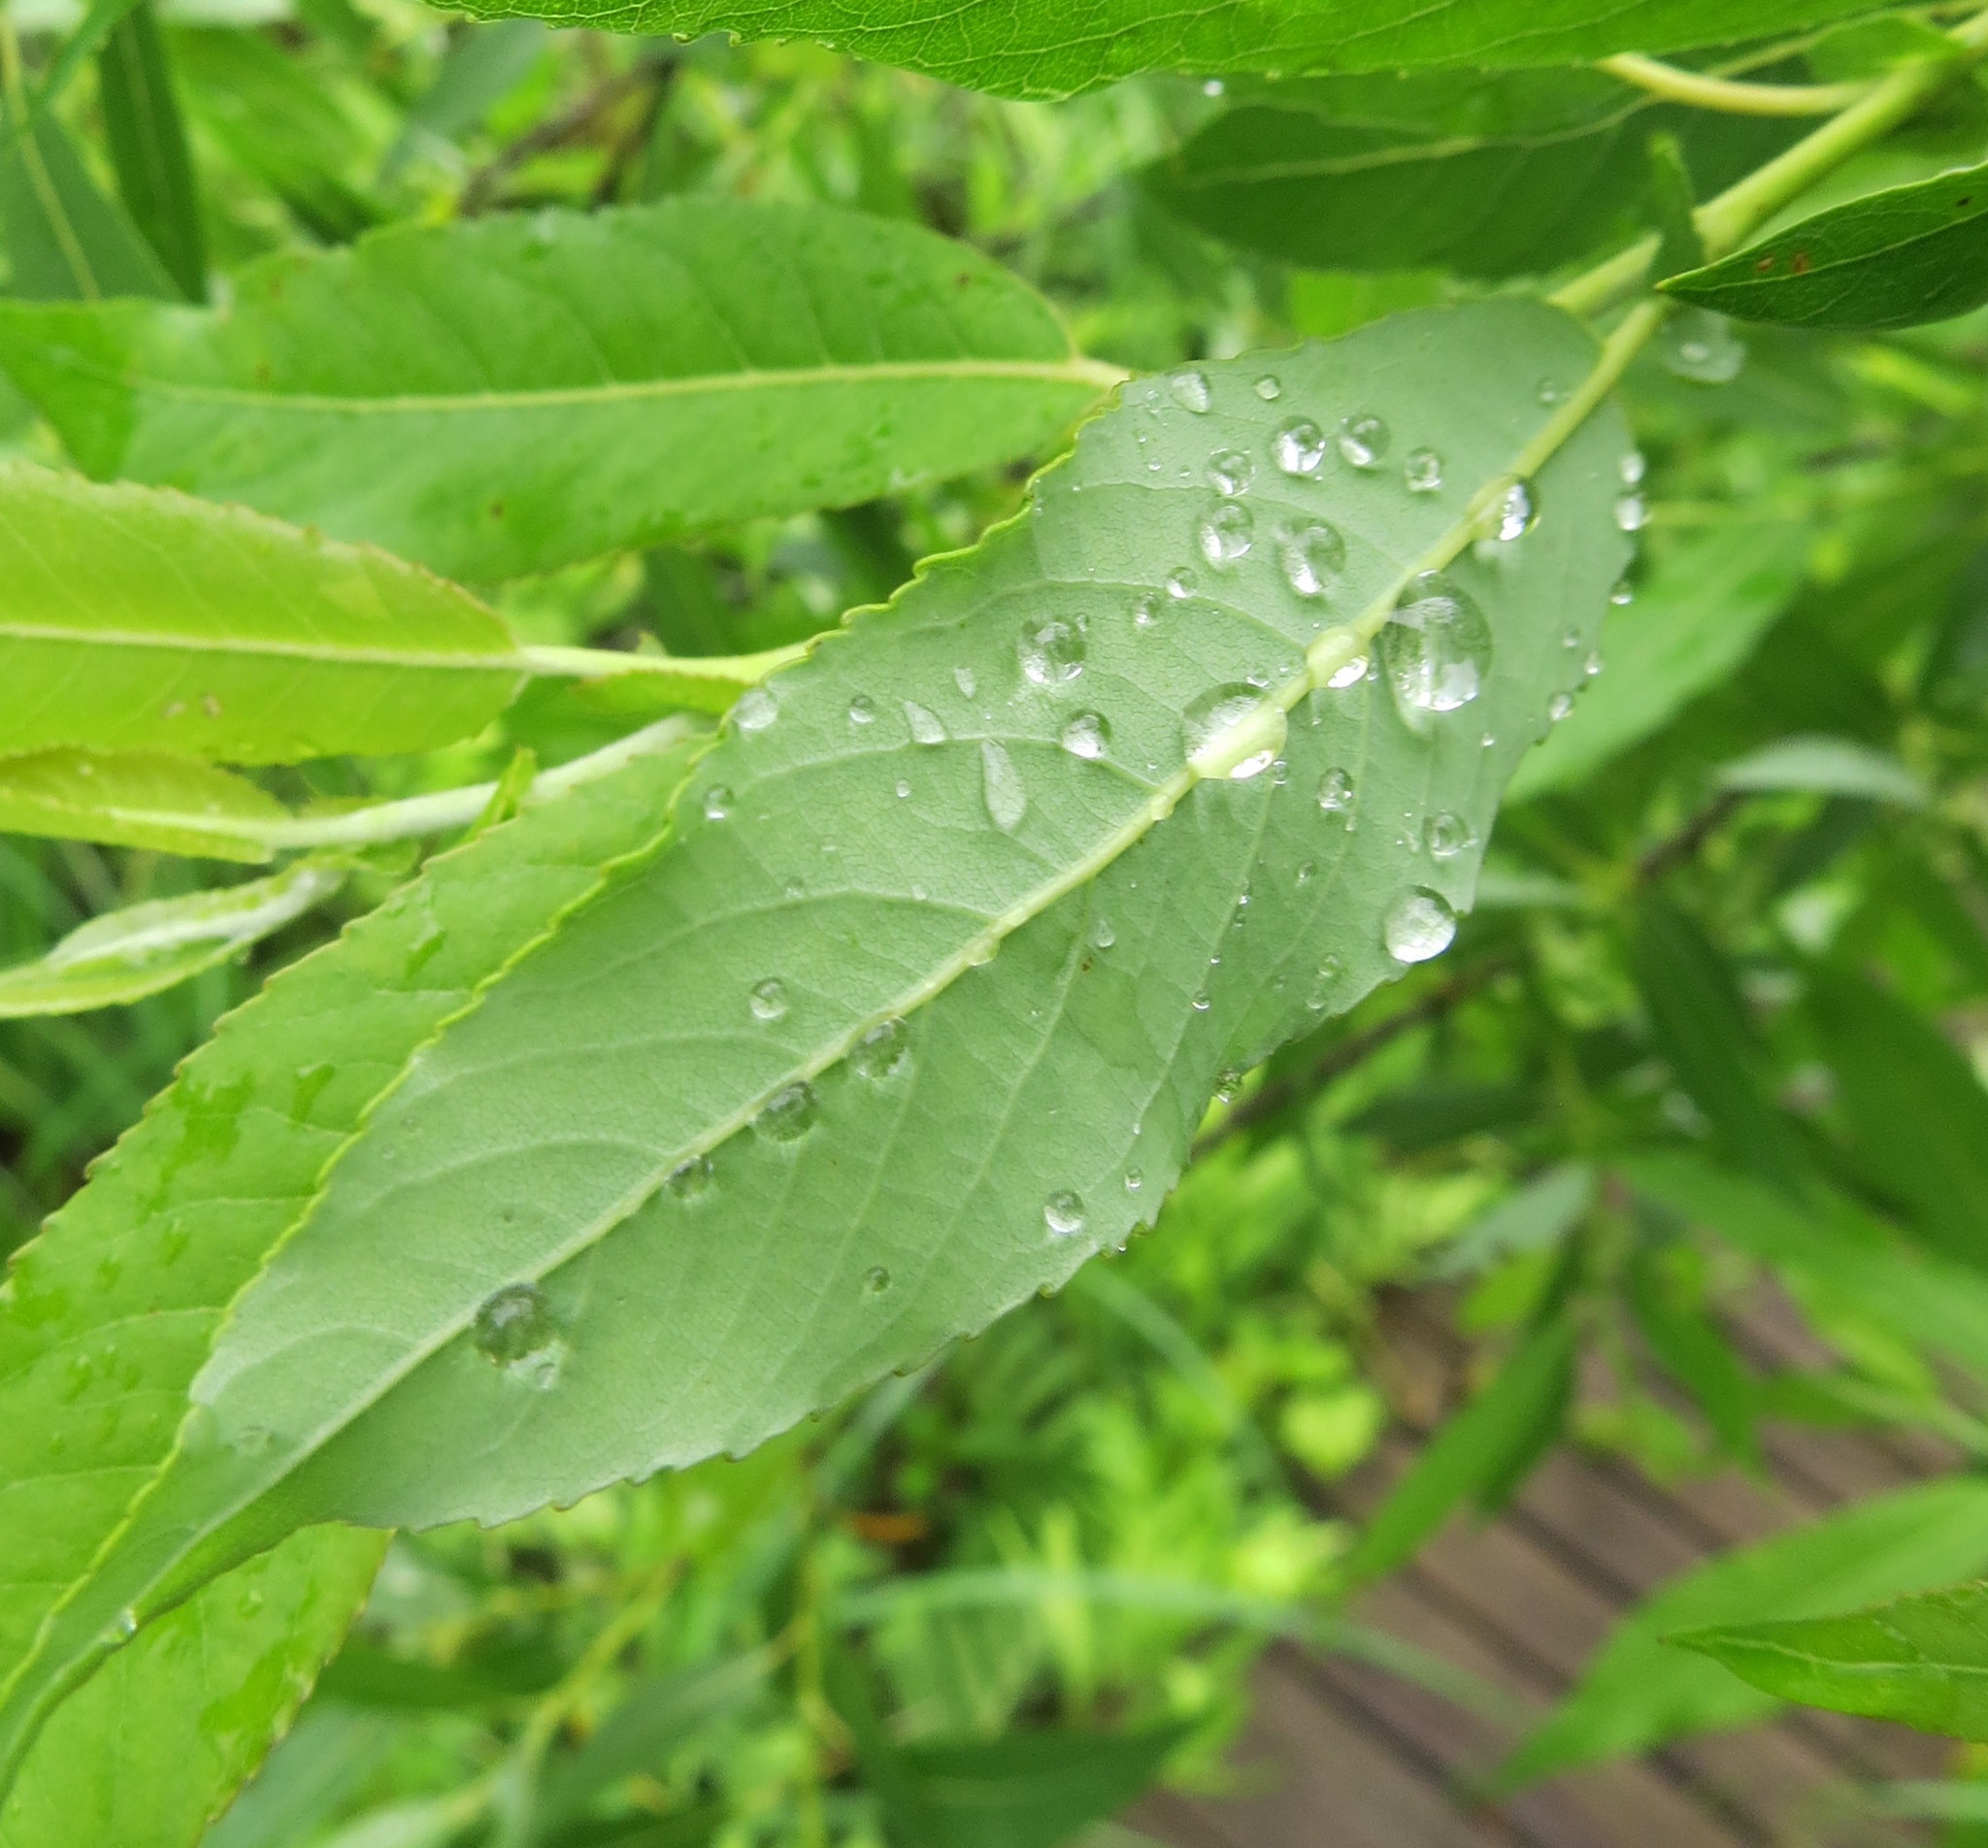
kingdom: Plantae
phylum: Tracheophyta
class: Magnoliopsida
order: Malpighiales
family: Salicaceae
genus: Salix
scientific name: Salix eriocephala
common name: Heart-leaved willow
